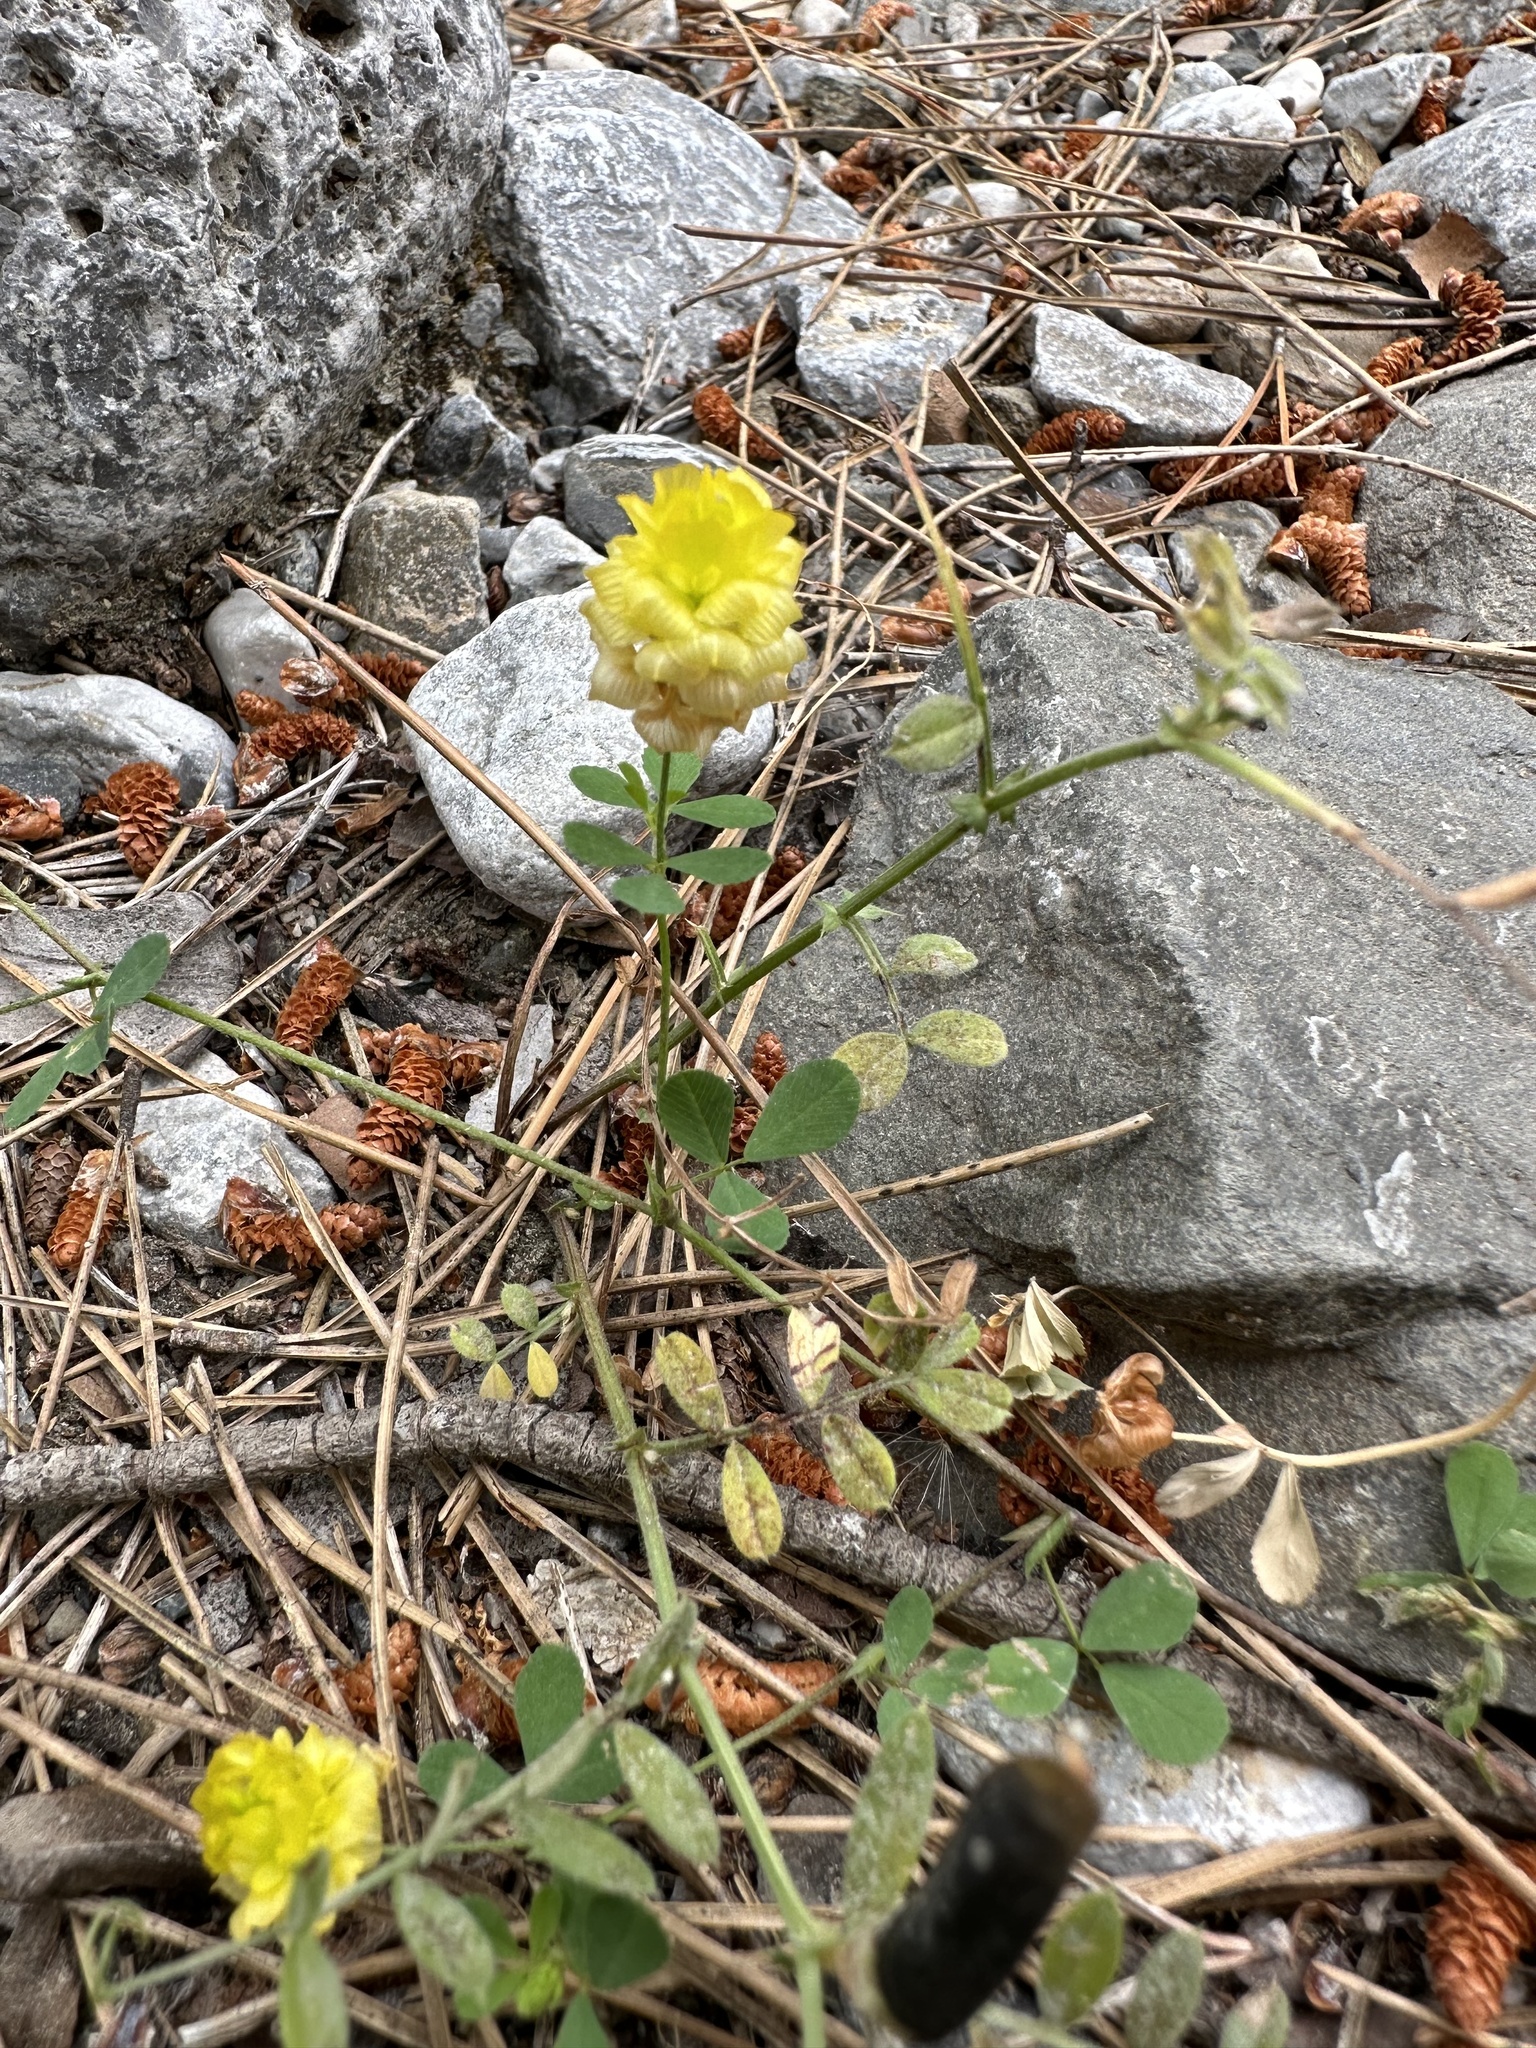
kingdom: Plantae
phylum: Tracheophyta
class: Magnoliopsida
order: Fabales
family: Fabaceae
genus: Trifolium
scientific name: Trifolium campestre
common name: Field clover
